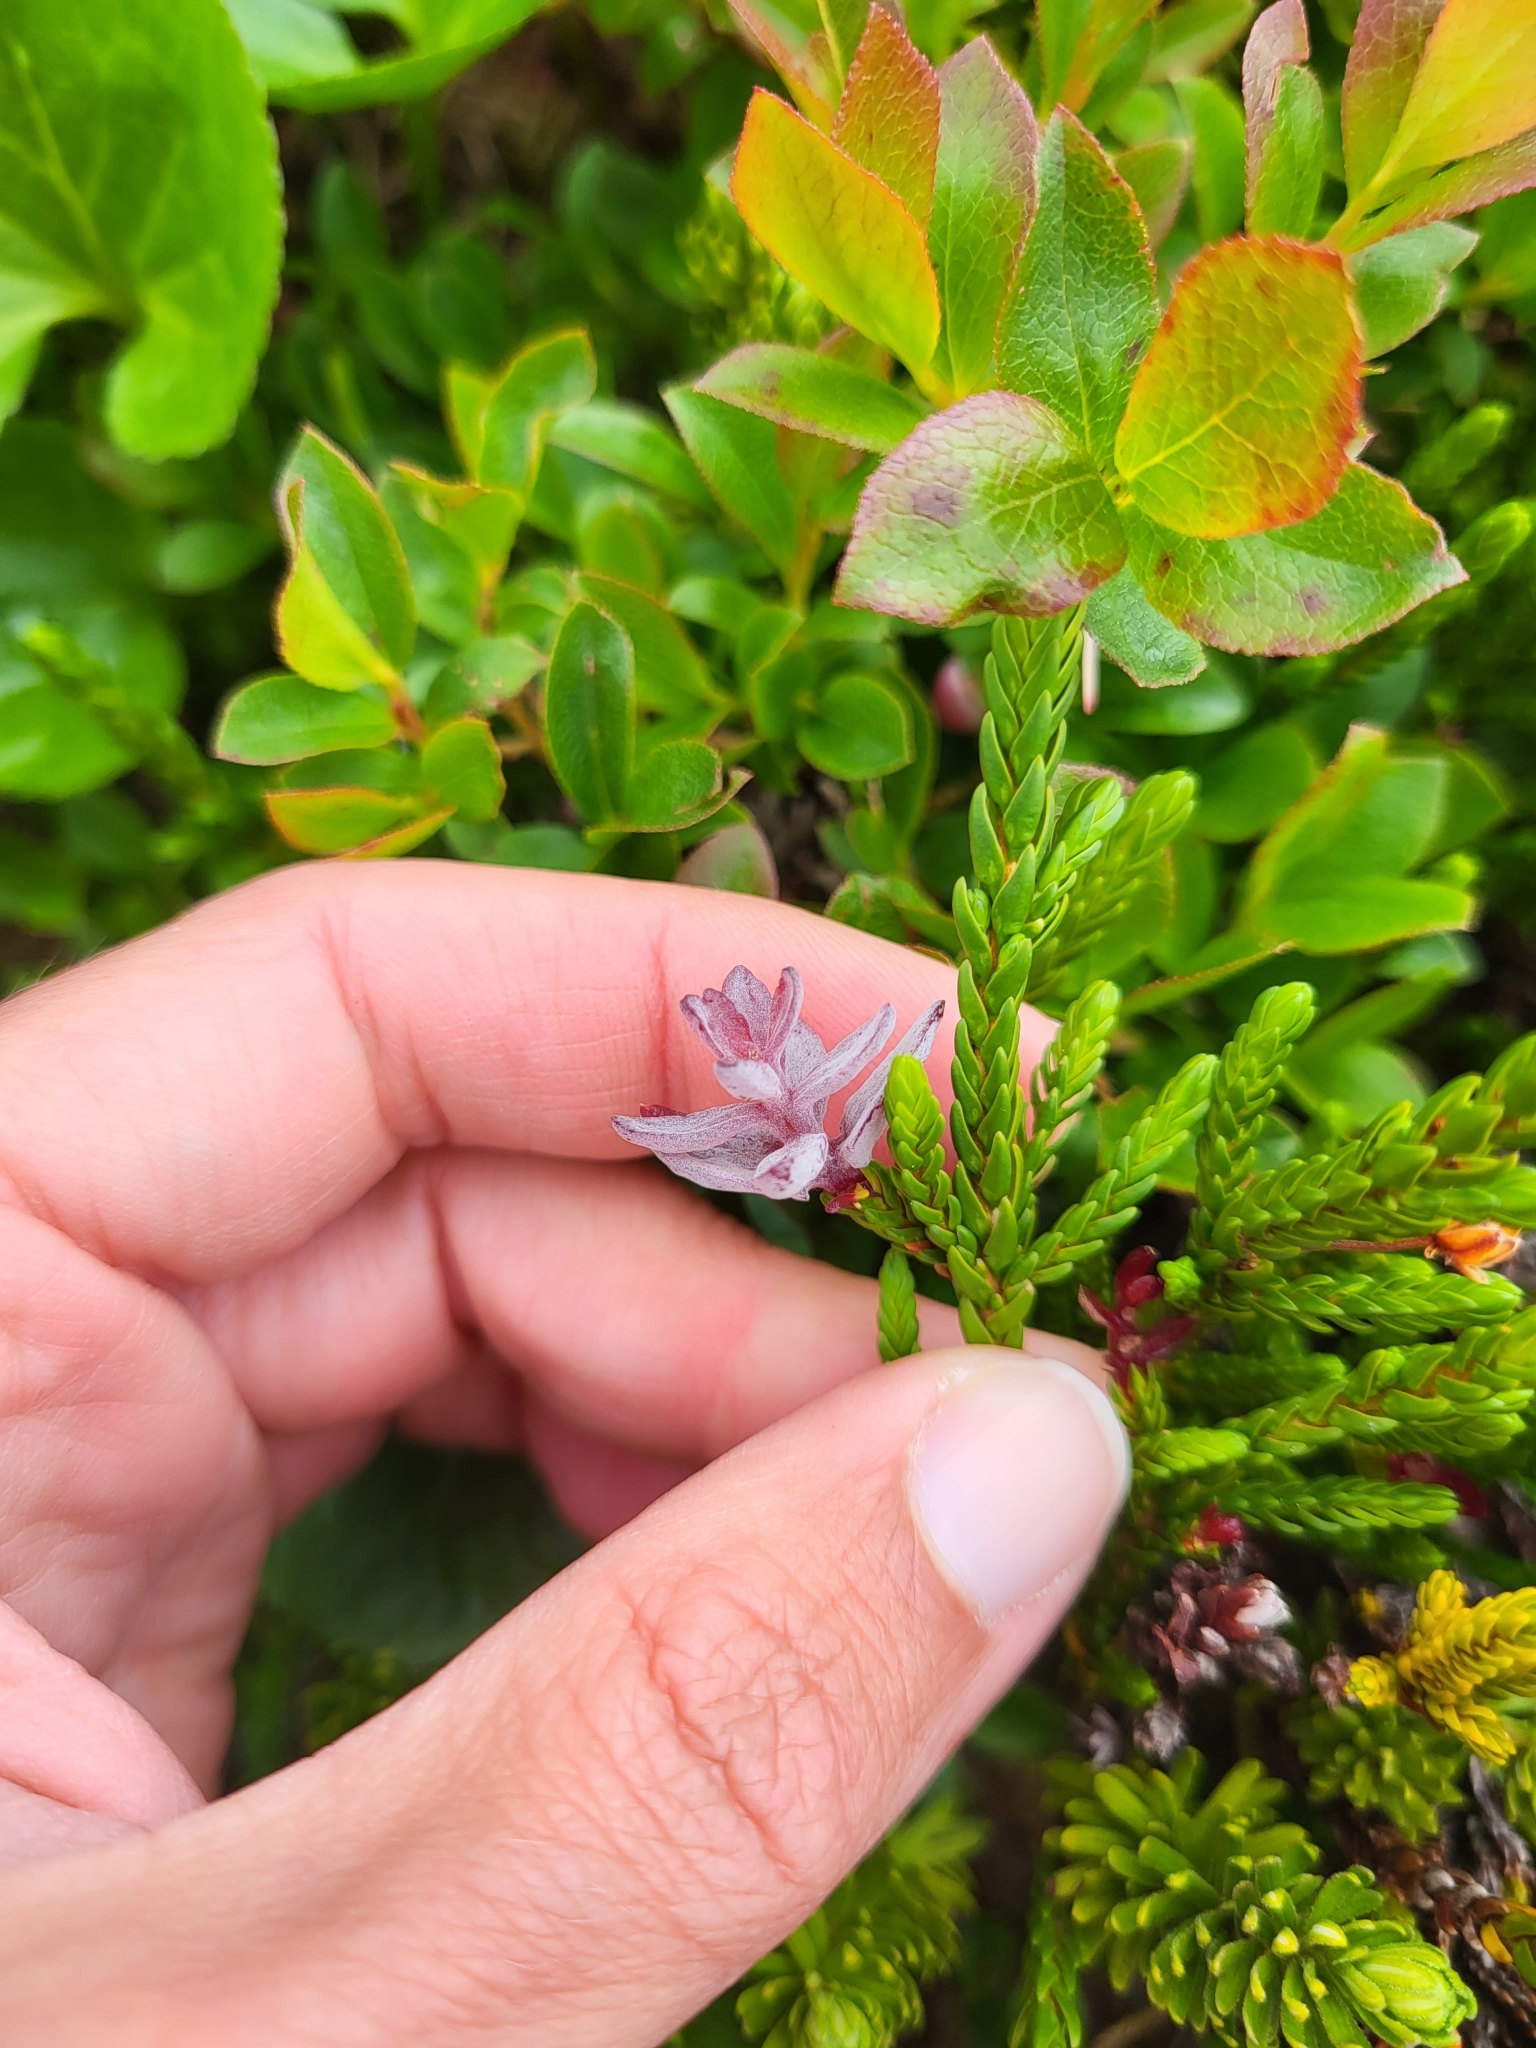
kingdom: Fungi
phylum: Basidiomycota
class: Exobasidiomycetes
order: Exobasidiales
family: Exobasidiaceae
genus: Exobasidium
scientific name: Exobasidium cassiopes
